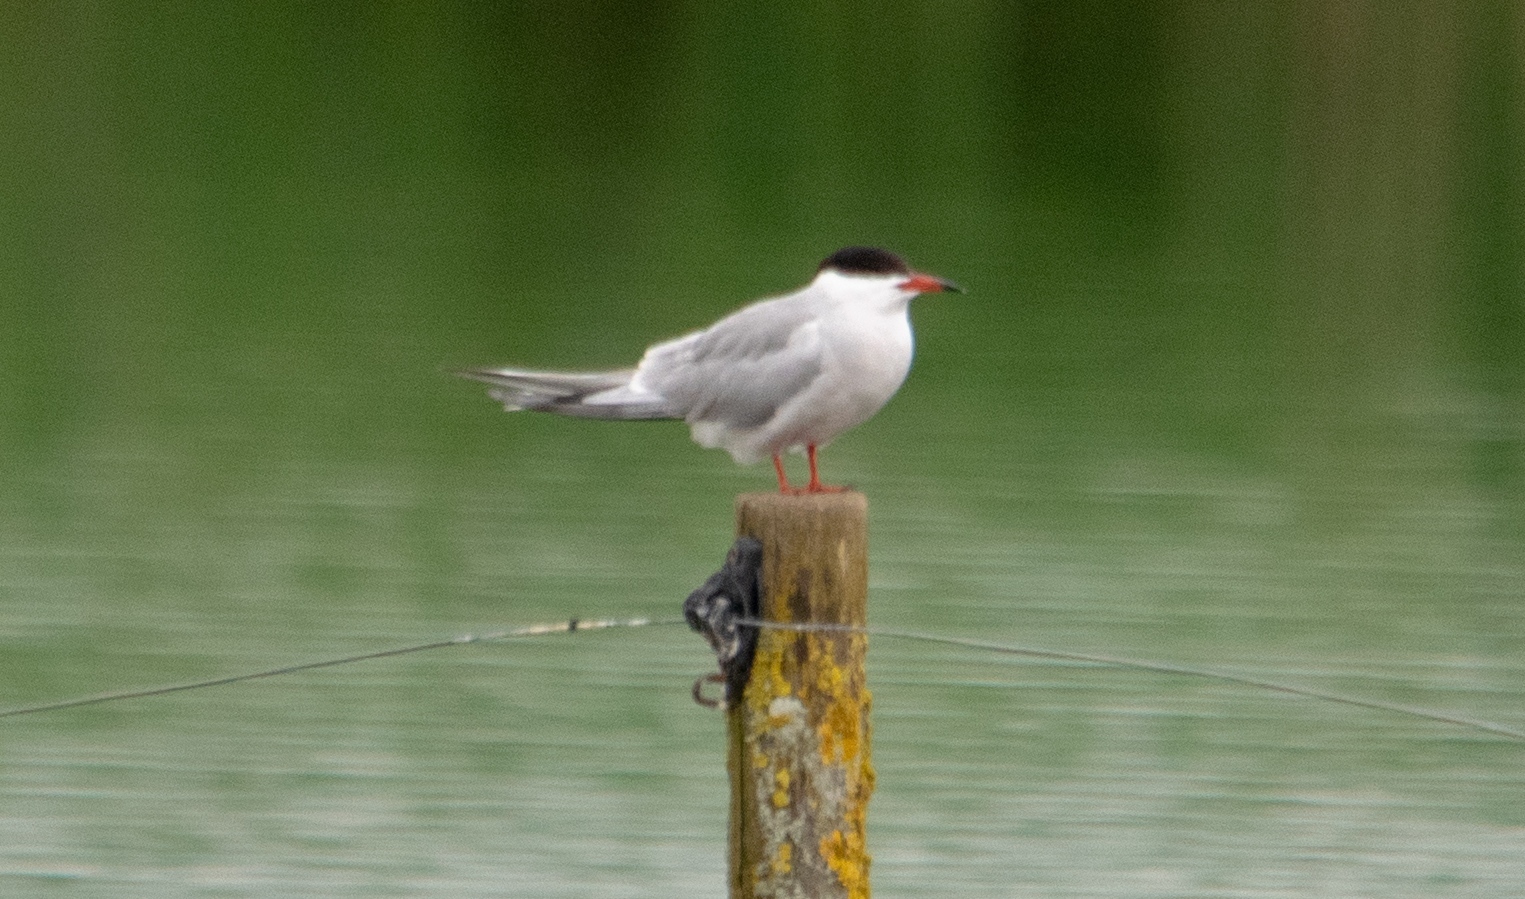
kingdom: Animalia
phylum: Chordata
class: Aves
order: Charadriiformes
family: Laridae
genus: Sterna
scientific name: Sterna hirundo
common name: Common tern
